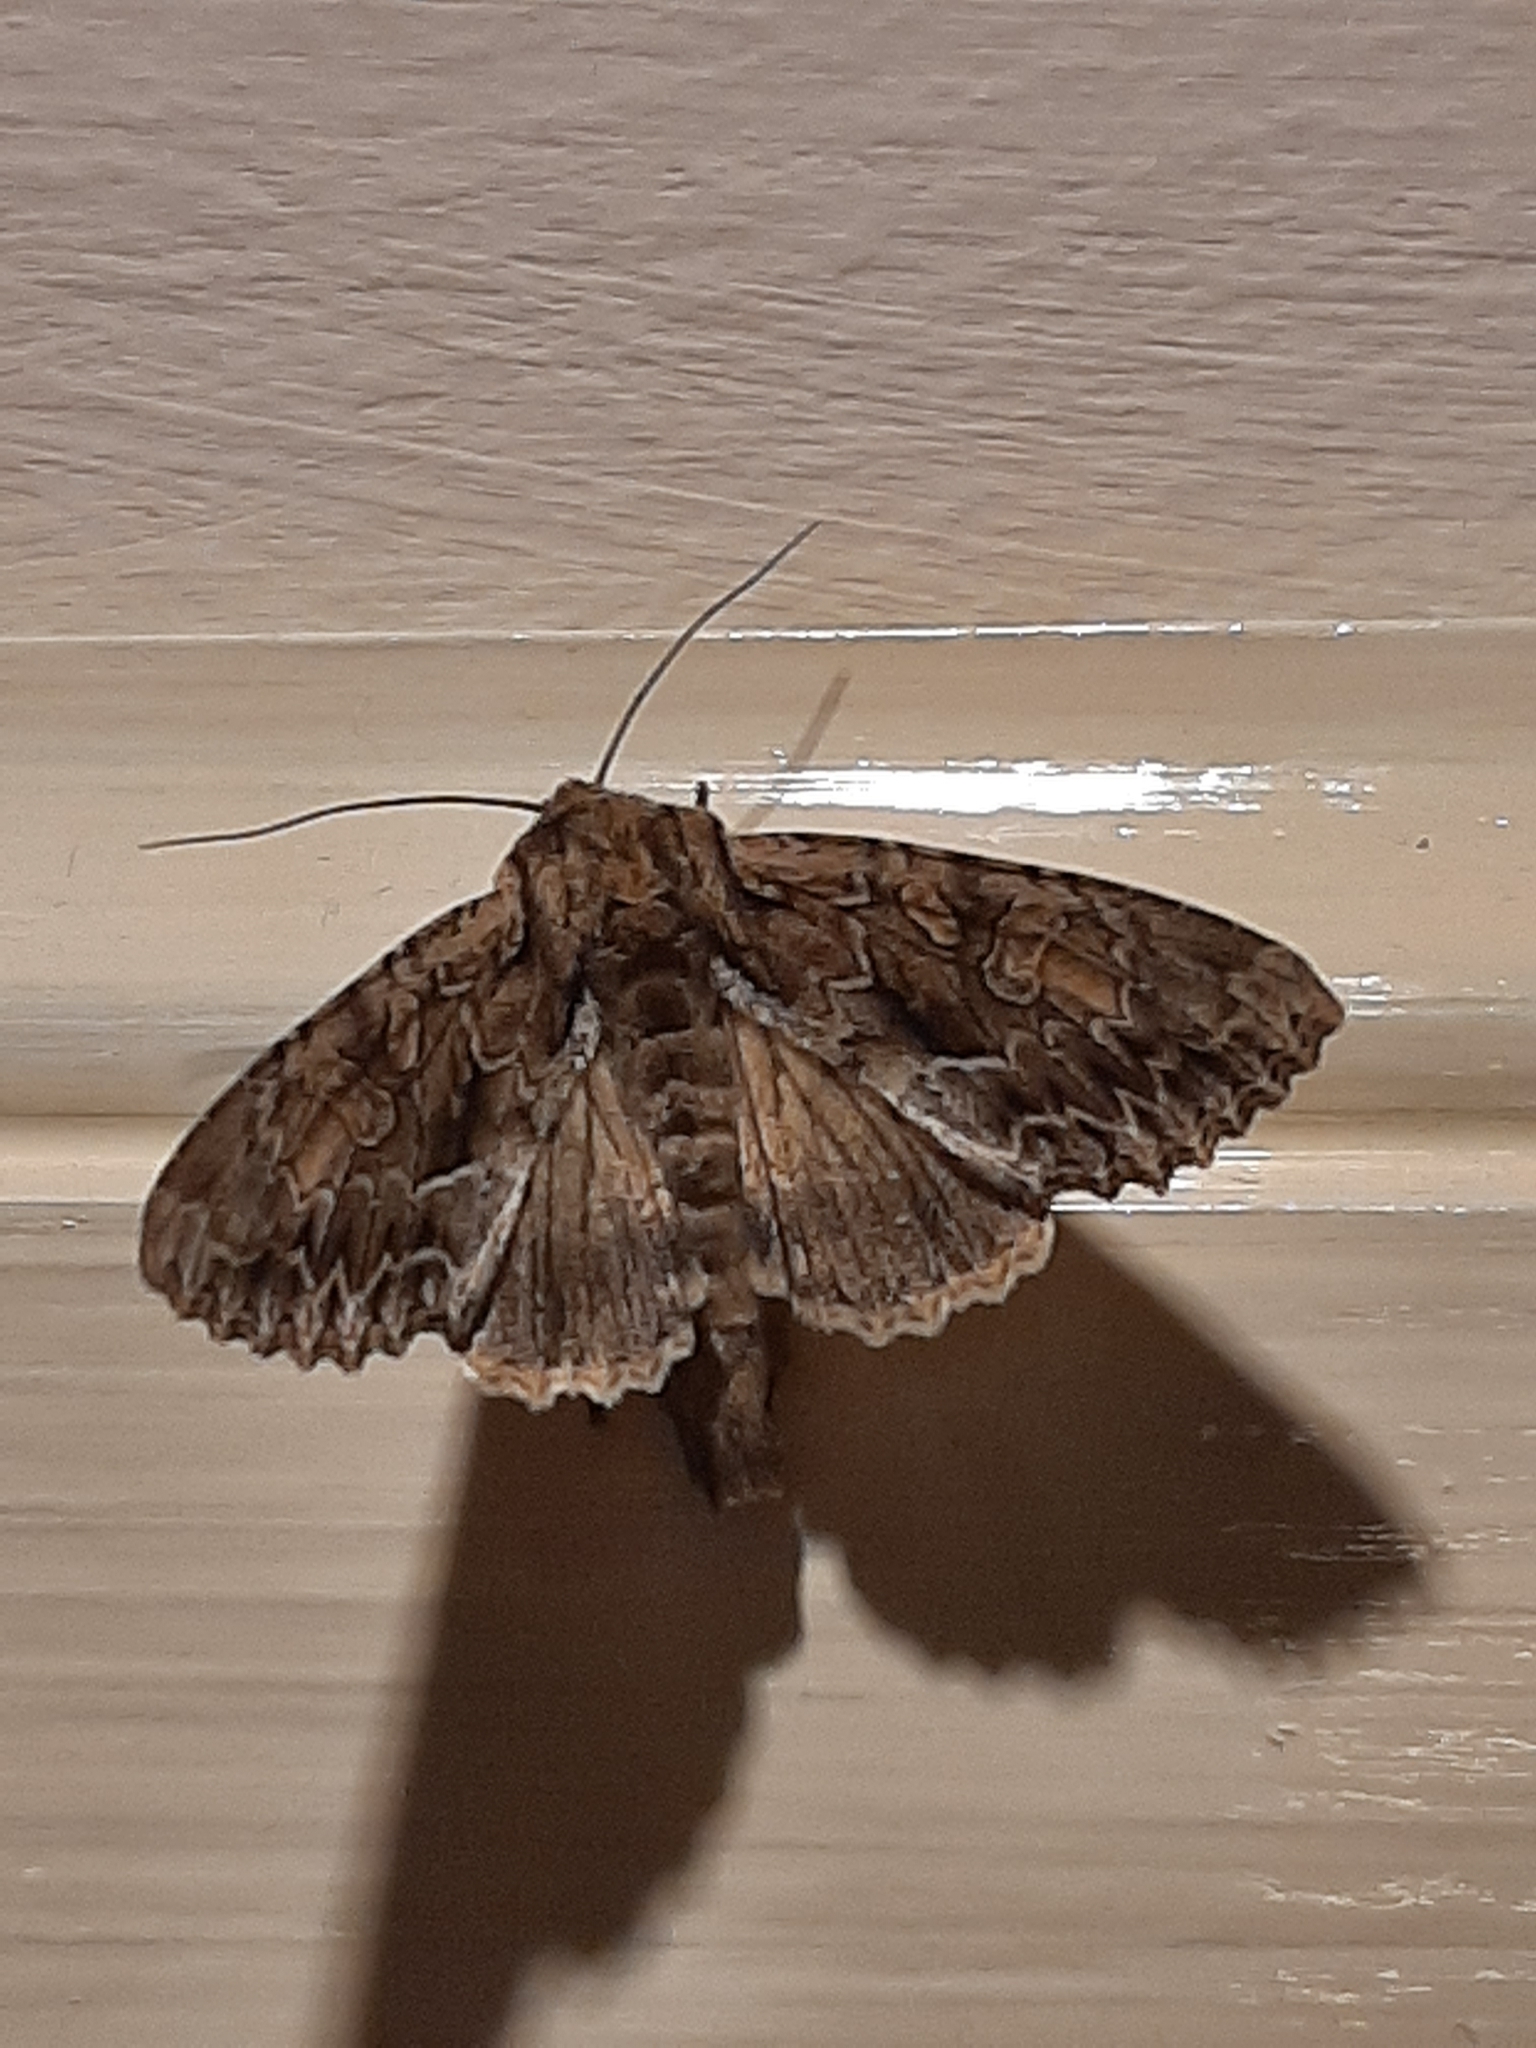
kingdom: Animalia
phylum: Arthropoda
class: Insecta
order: Lepidoptera
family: Noctuidae
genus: Apamea
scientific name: Apamea monoglypha
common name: Dark arches
